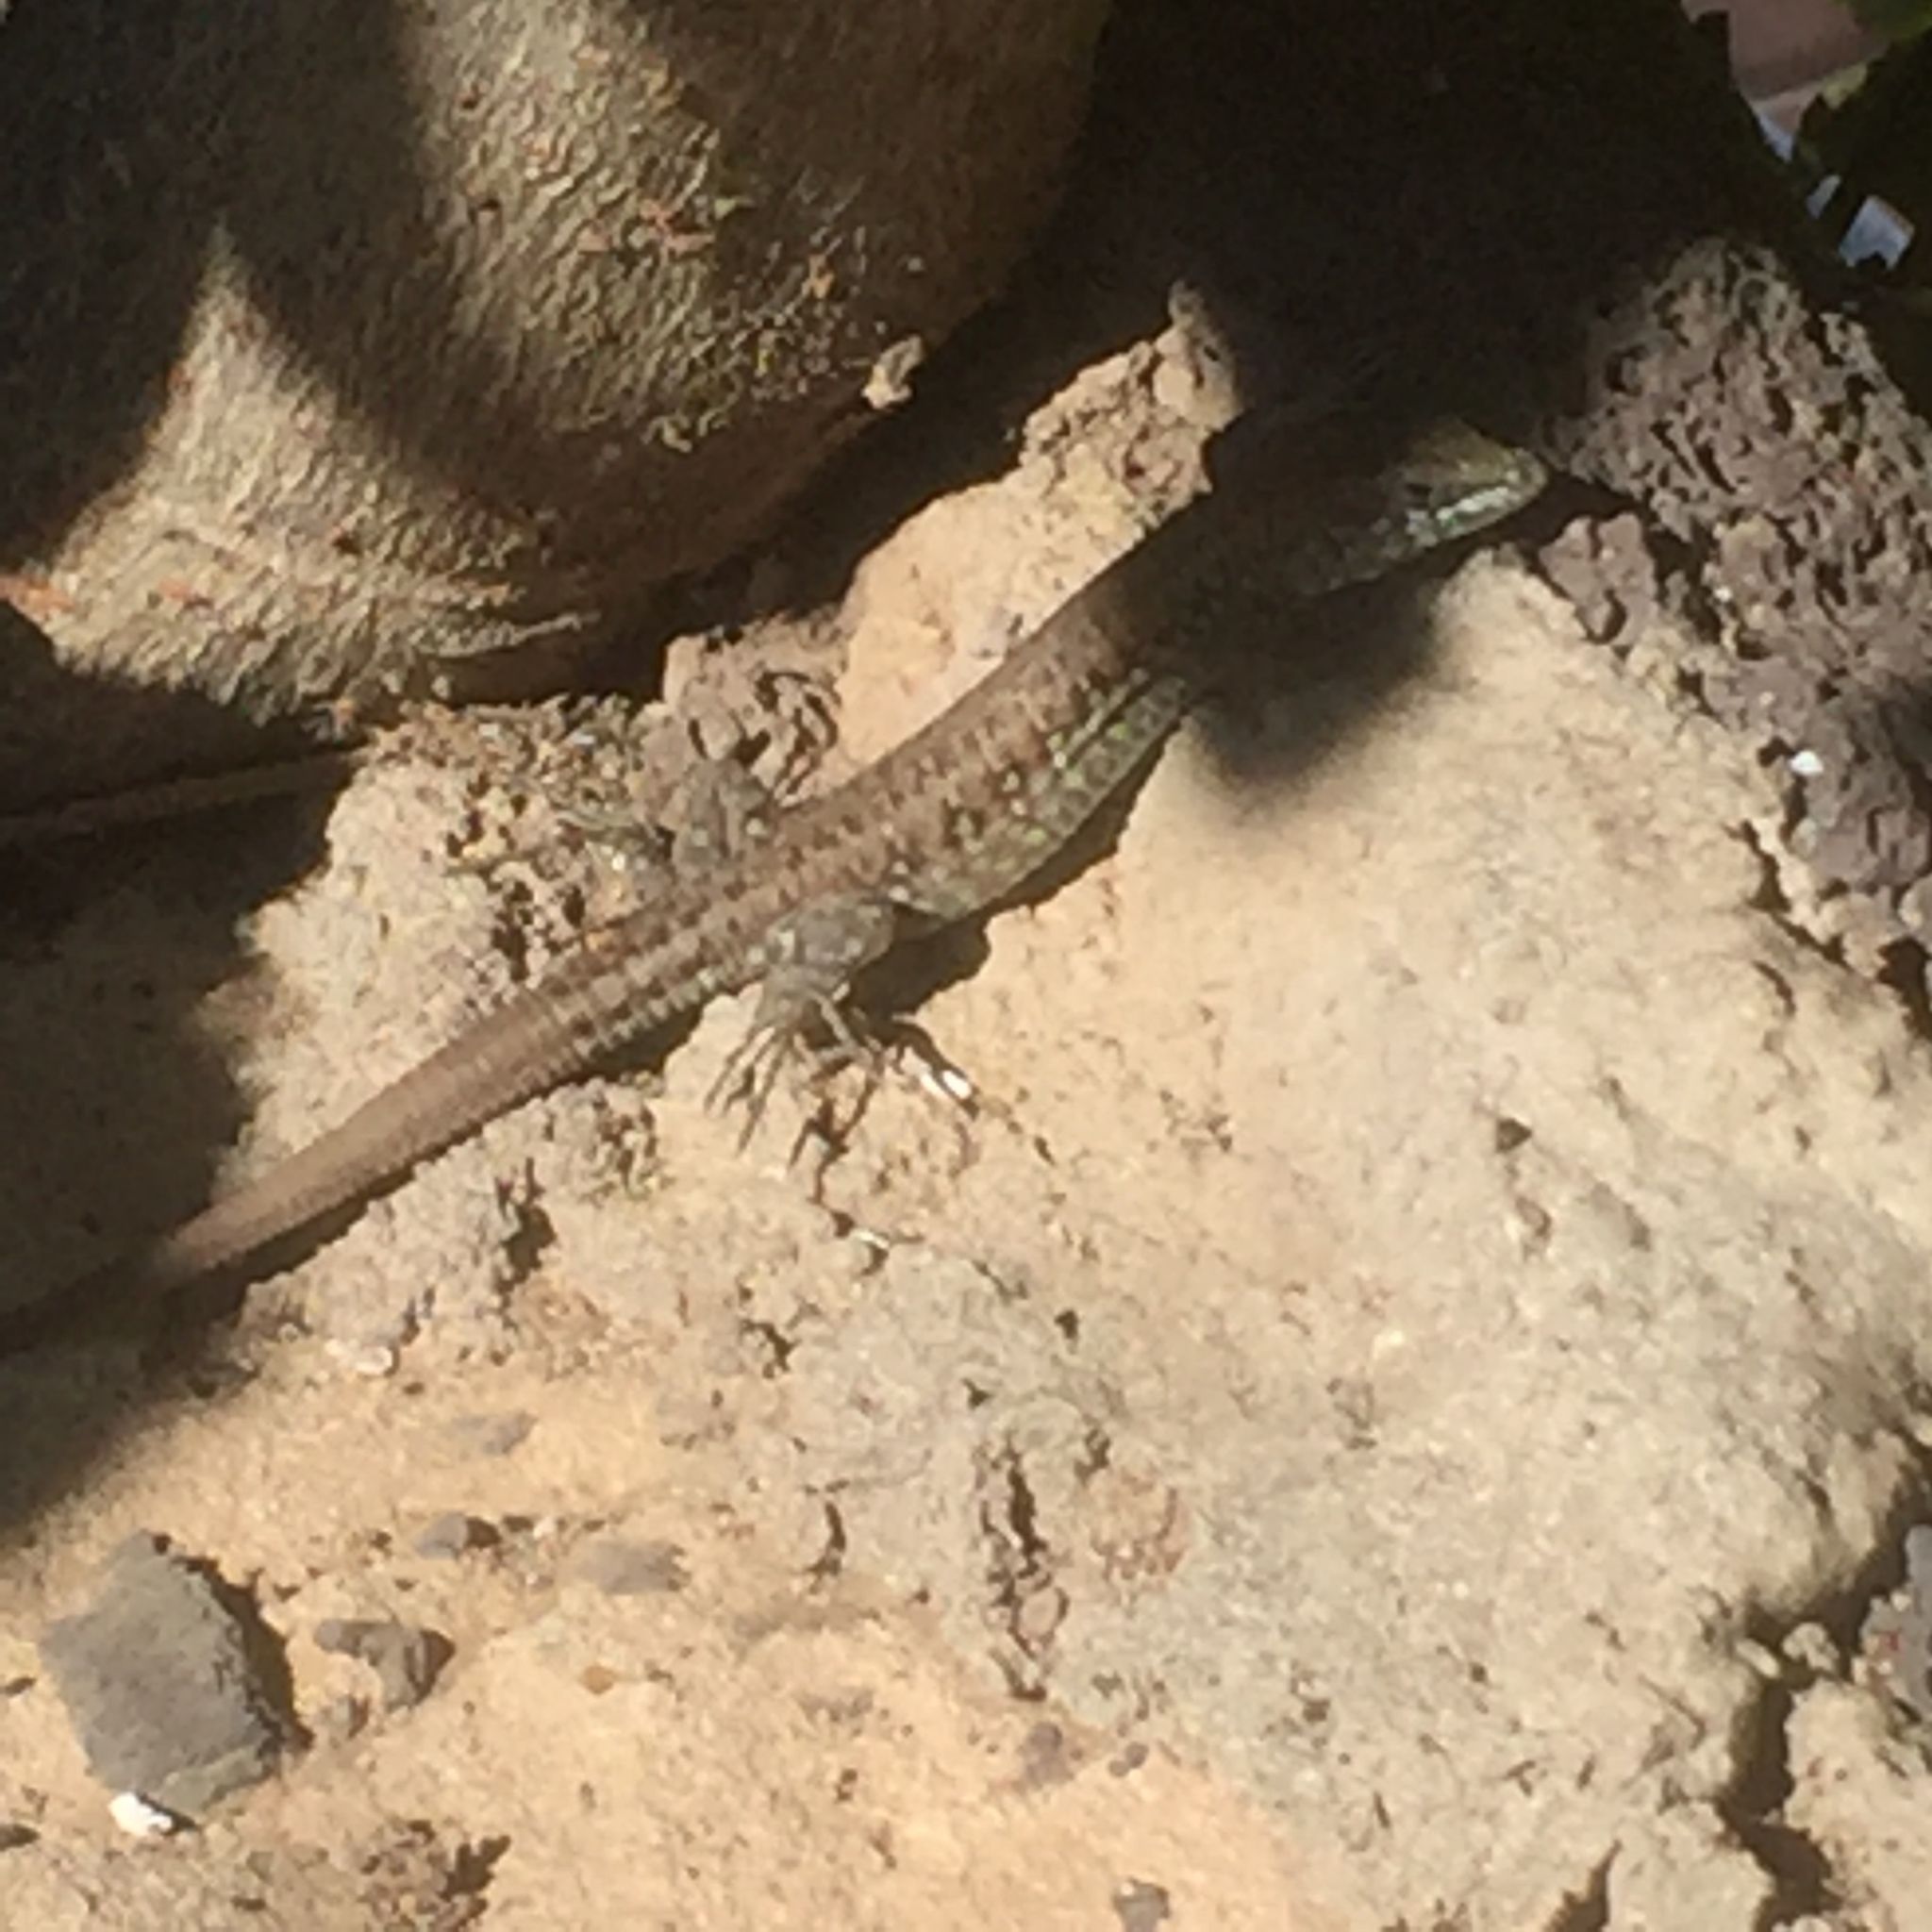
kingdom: Animalia
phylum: Chordata
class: Squamata
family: Lacertidae
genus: Gallotia
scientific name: Gallotia atlantica
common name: Atlantic lizard
